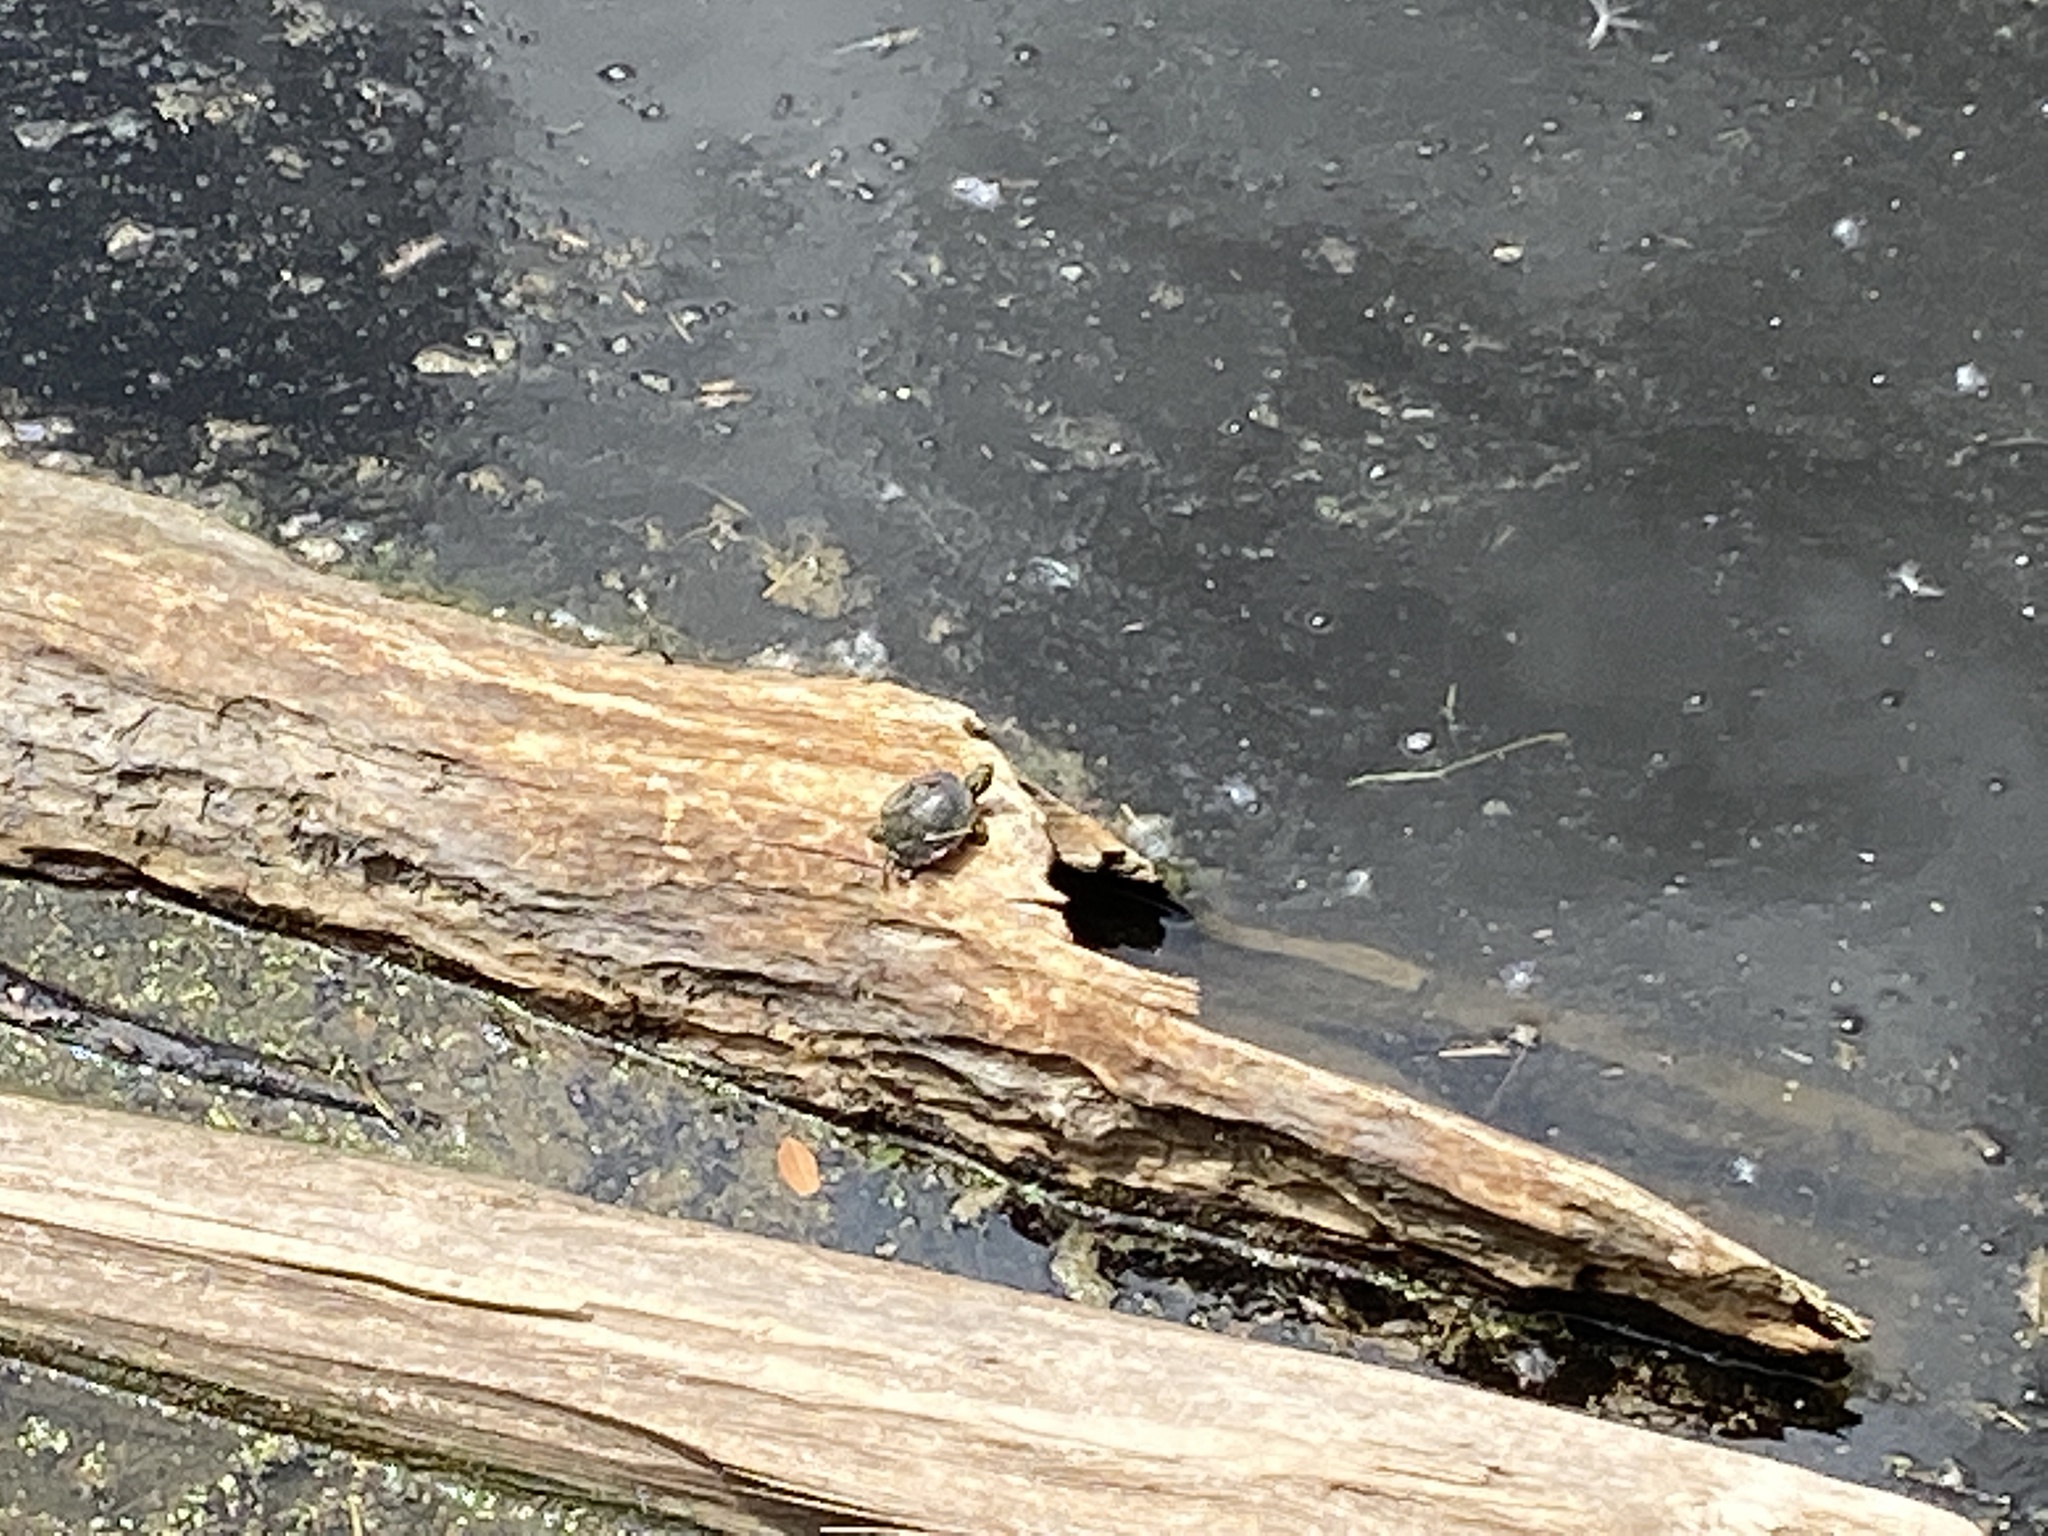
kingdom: Animalia
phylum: Chordata
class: Testudines
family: Emydidae
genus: Chrysemys
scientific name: Chrysemys picta
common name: Painted turtle
